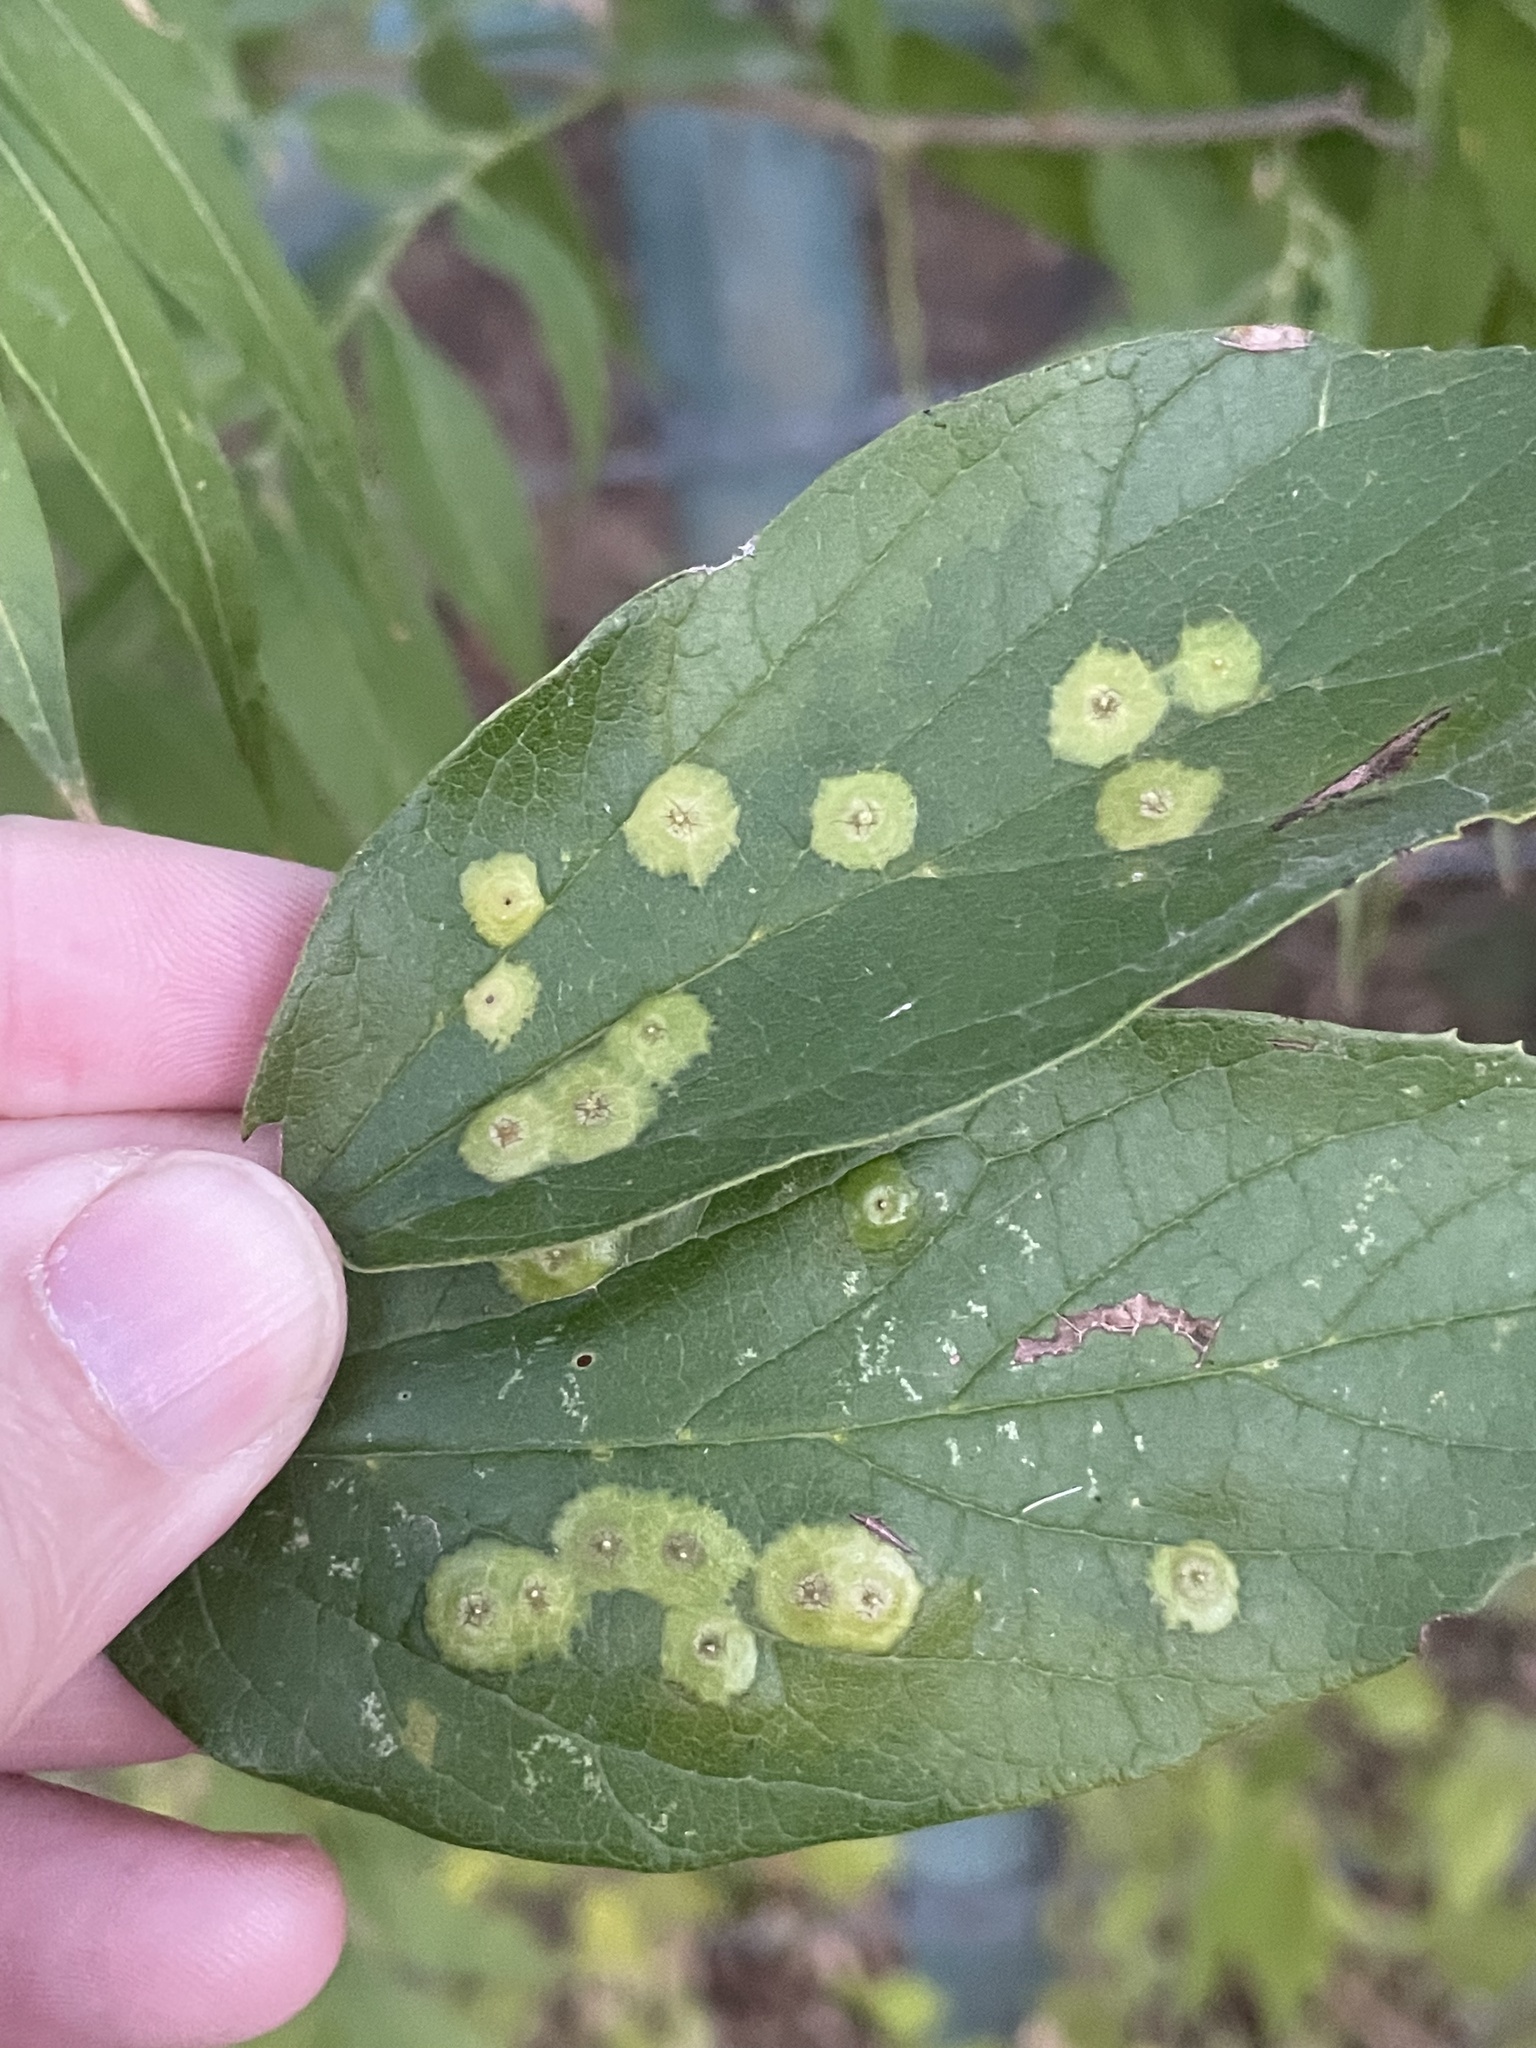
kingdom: Animalia
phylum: Arthropoda
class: Insecta
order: Hemiptera
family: Aphalaridae
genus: Pachypsylla
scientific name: Pachypsylla celtidisasterisca
